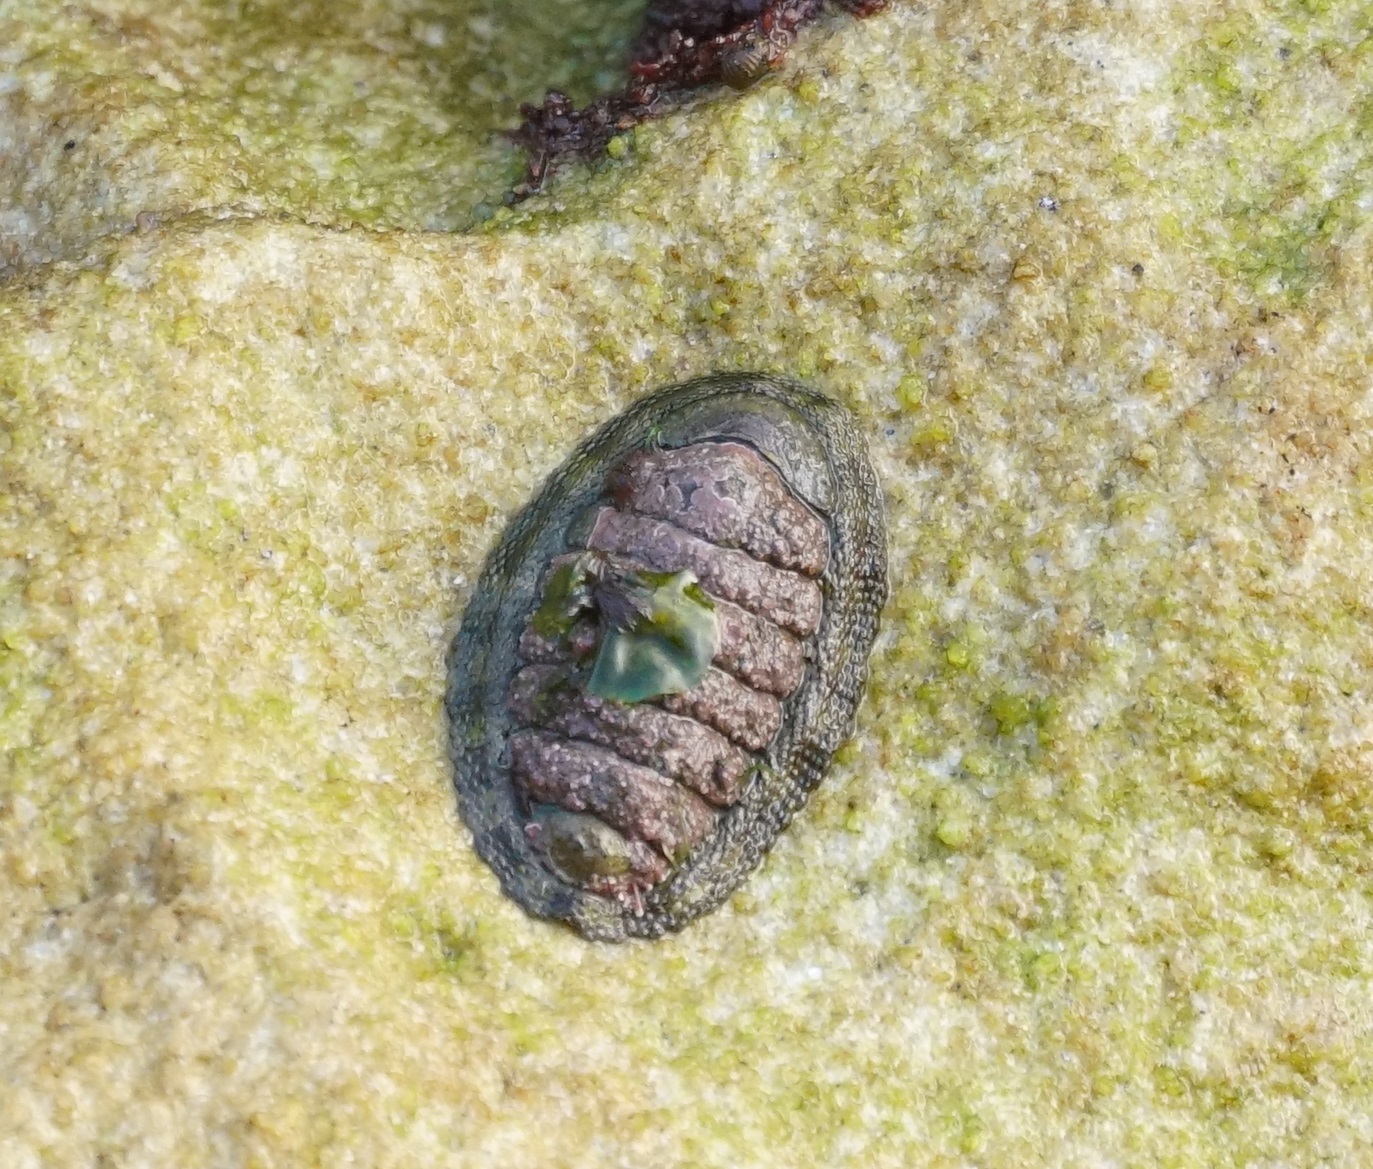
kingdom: Animalia
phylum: Mollusca
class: Polyplacophora
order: Chitonida
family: Chitonidae
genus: Sypharochiton
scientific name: Sypharochiton pelliserpentis
